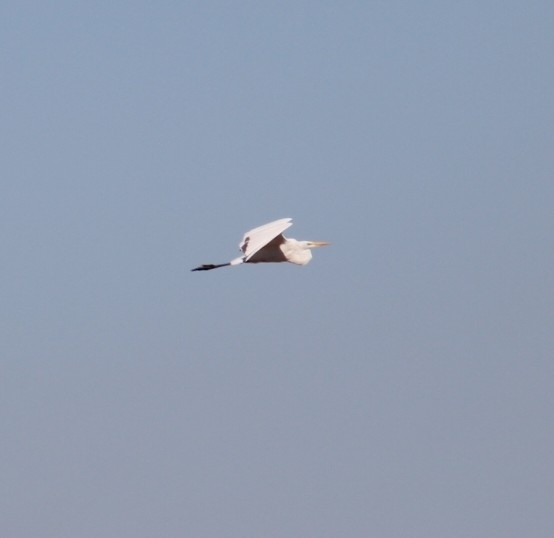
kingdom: Animalia
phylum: Chordata
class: Aves
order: Pelecaniformes
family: Ardeidae
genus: Ardea
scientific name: Ardea alba
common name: Great egret
